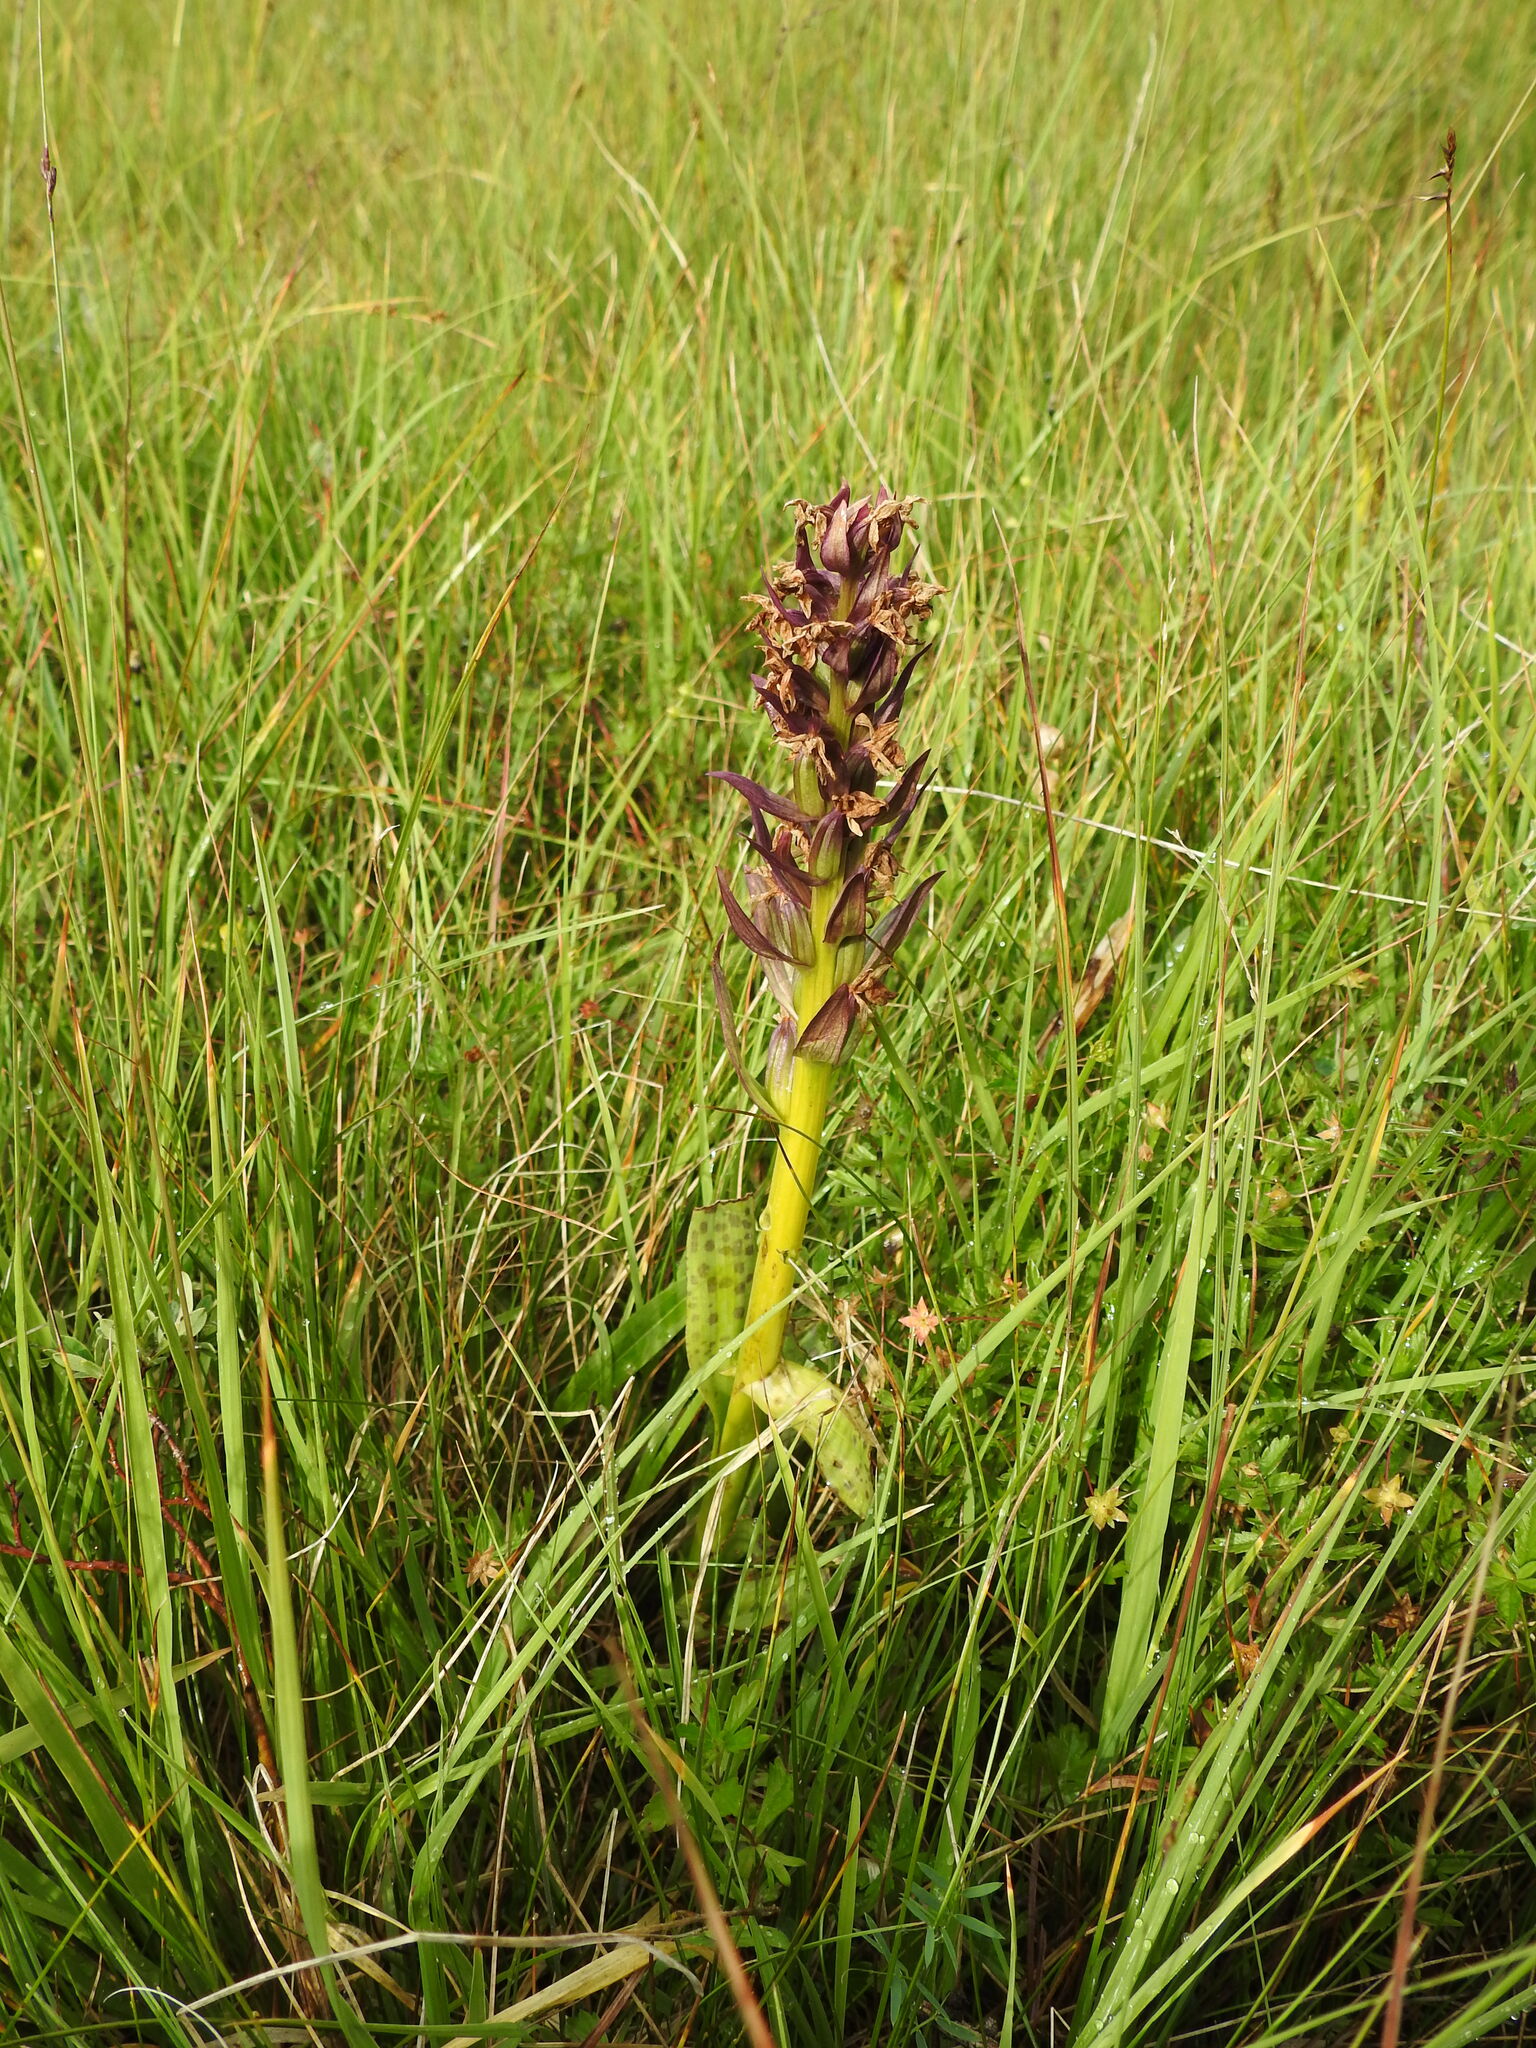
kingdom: Plantae
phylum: Tracheophyta
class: Liliopsida
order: Asparagales
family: Orchidaceae
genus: Dactylorhiza
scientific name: Dactylorhiza majalis
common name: Marsh orchid
